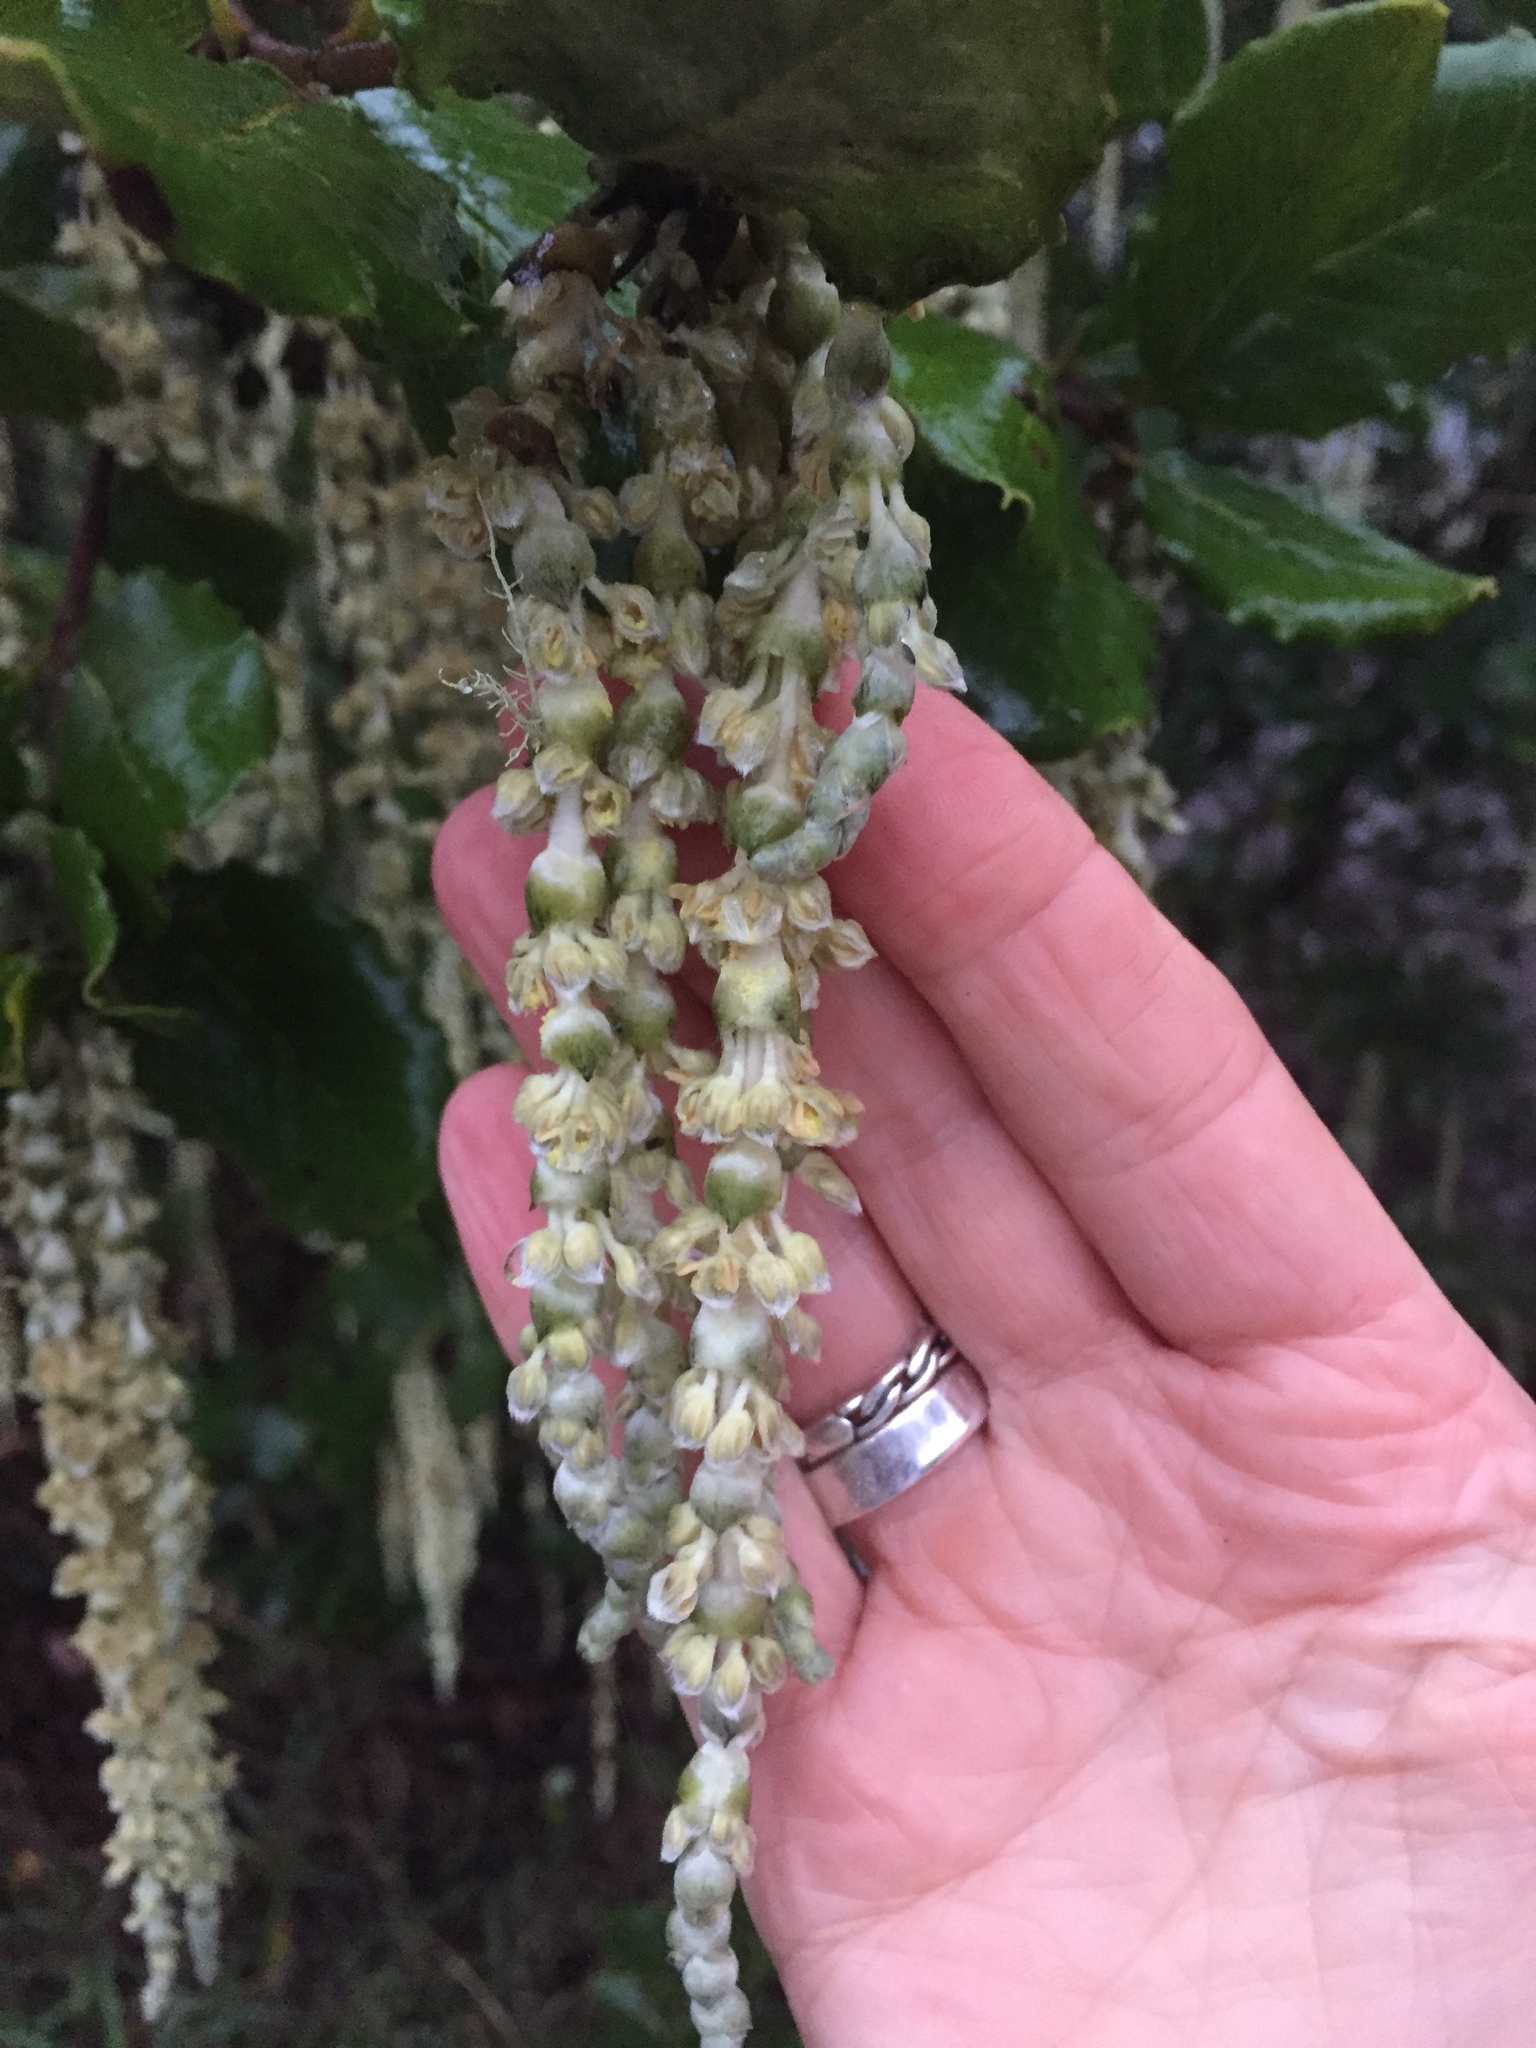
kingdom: Plantae
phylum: Tracheophyta
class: Magnoliopsida
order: Garryales
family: Garryaceae
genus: Garrya
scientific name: Garrya elliptica
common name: Silk-tassel
